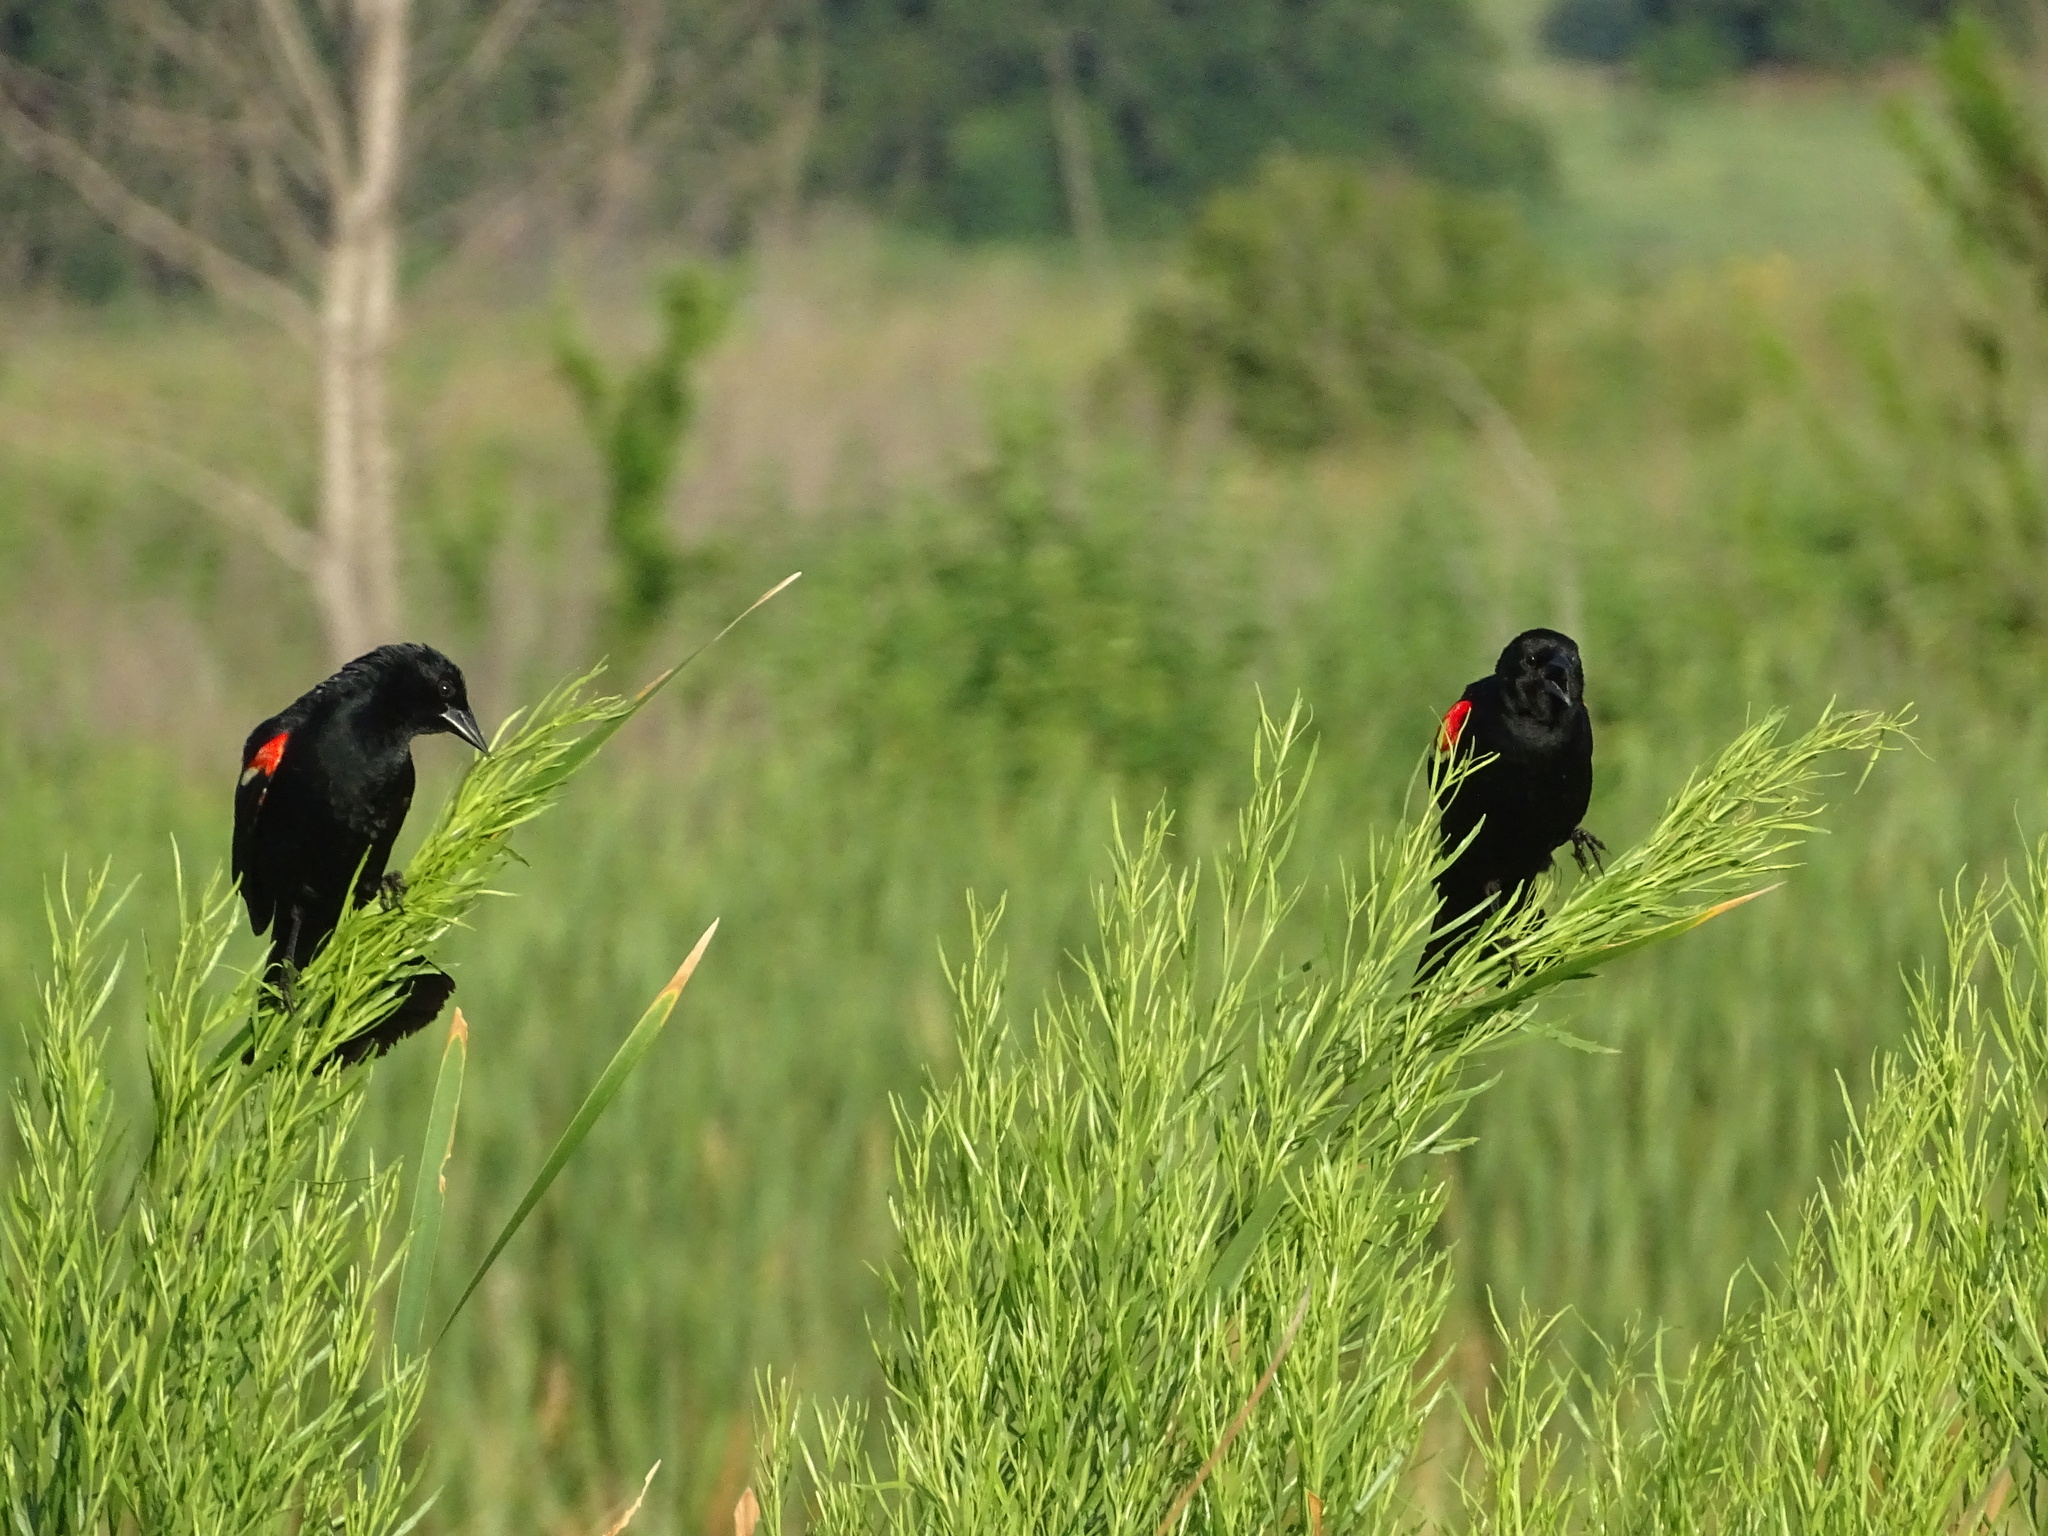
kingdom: Animalia
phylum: Chordata
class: Aves
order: Passeriformes
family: Icteridae
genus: Agelaius
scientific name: Agelaius phoeniceus
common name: Red-winged blackbird
